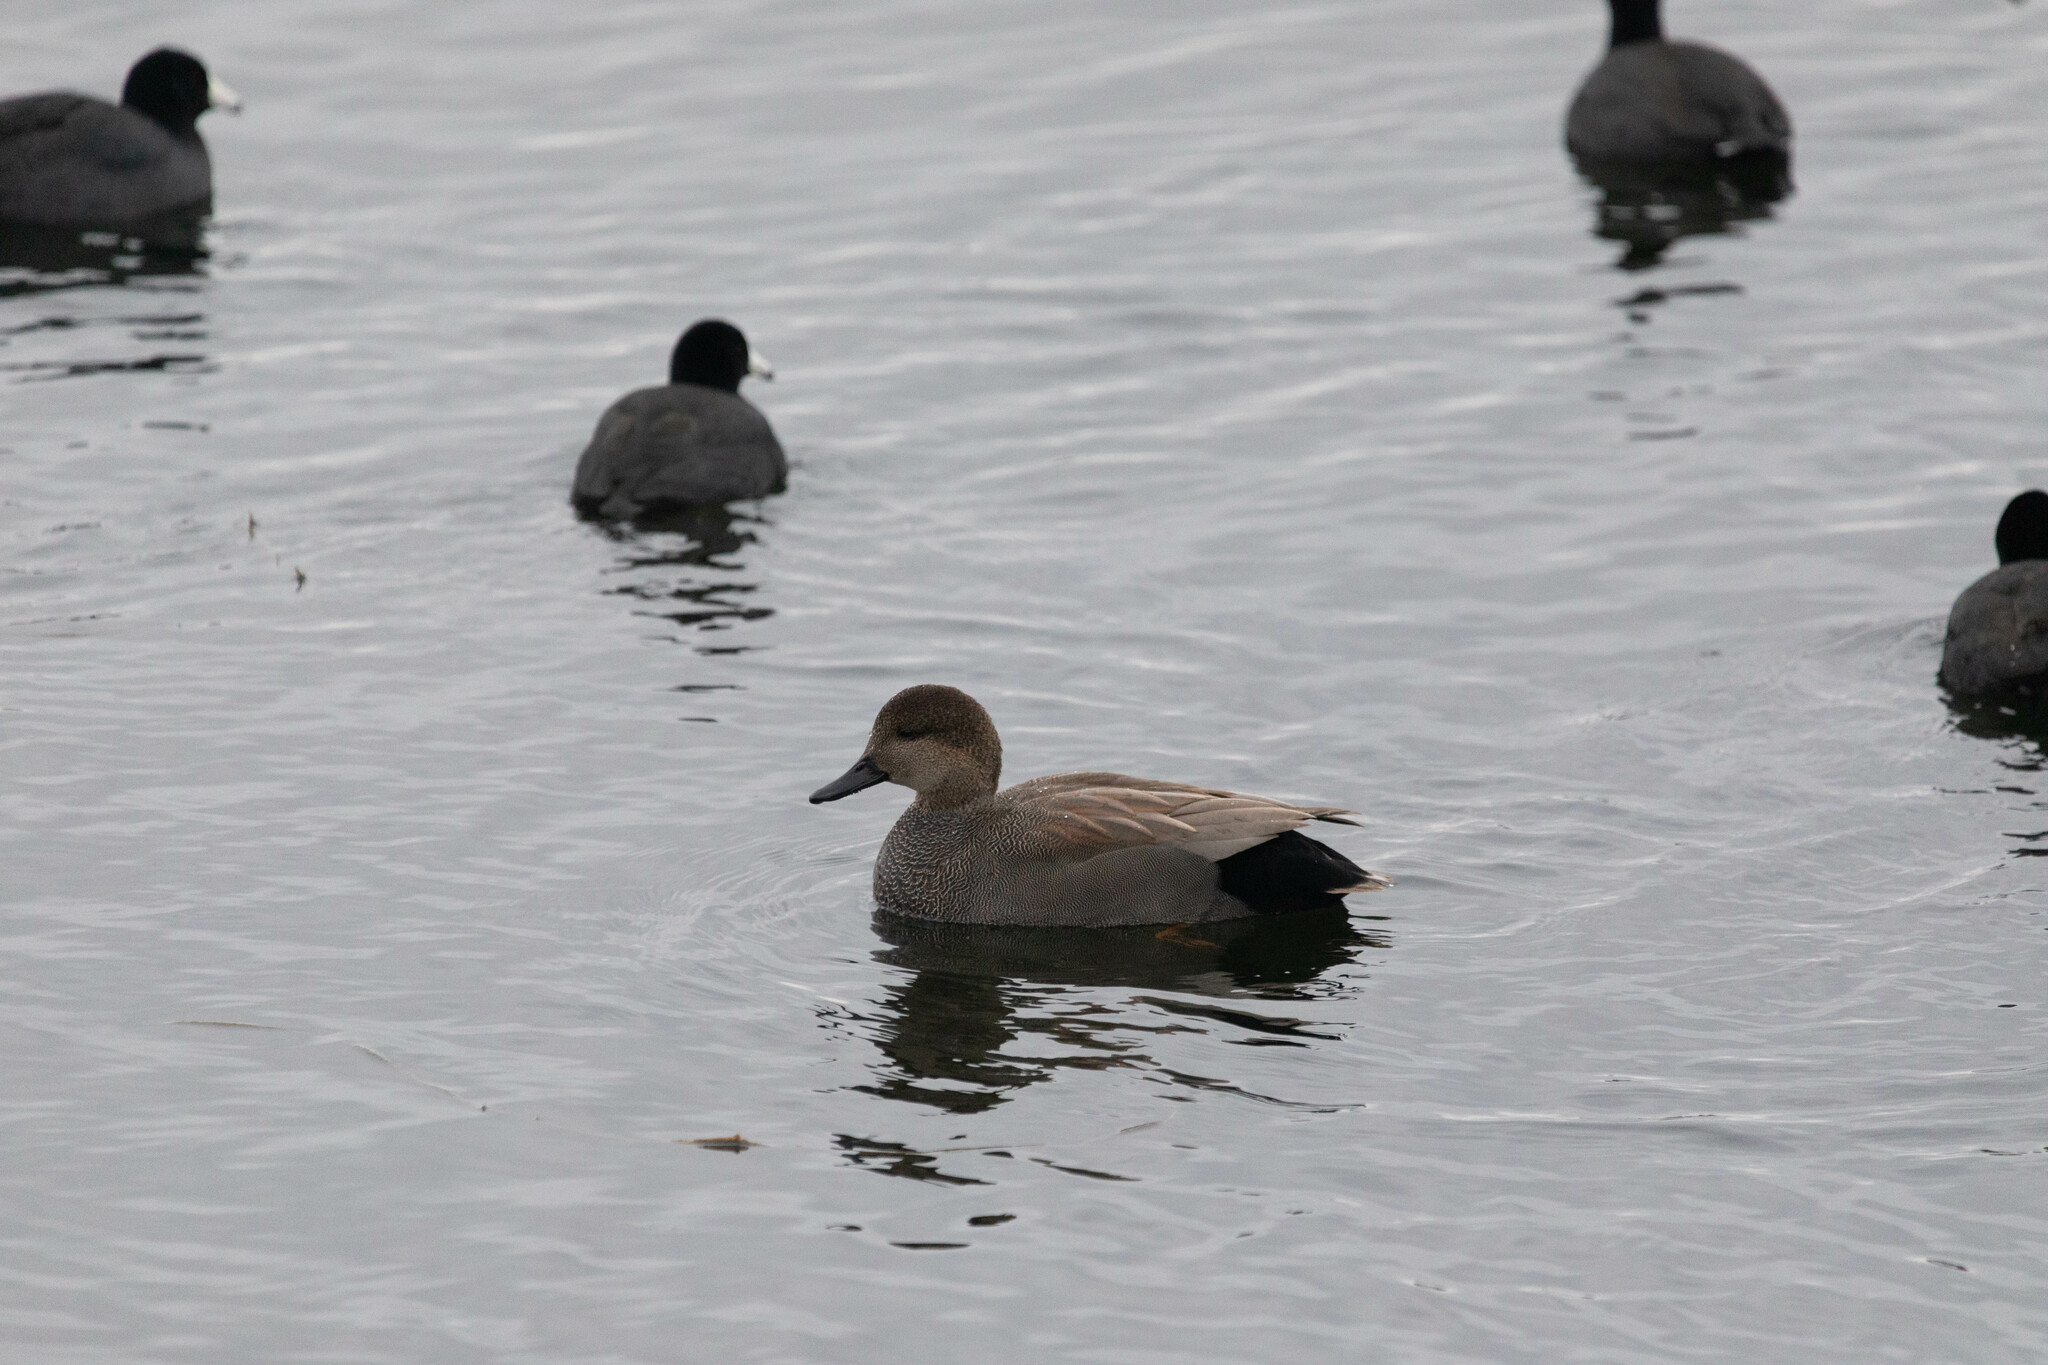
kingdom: Animalia
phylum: Chordata
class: Aves
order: Anseriformes
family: Anatidae
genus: Mareca
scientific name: Mareca strepera
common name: Gadwall
